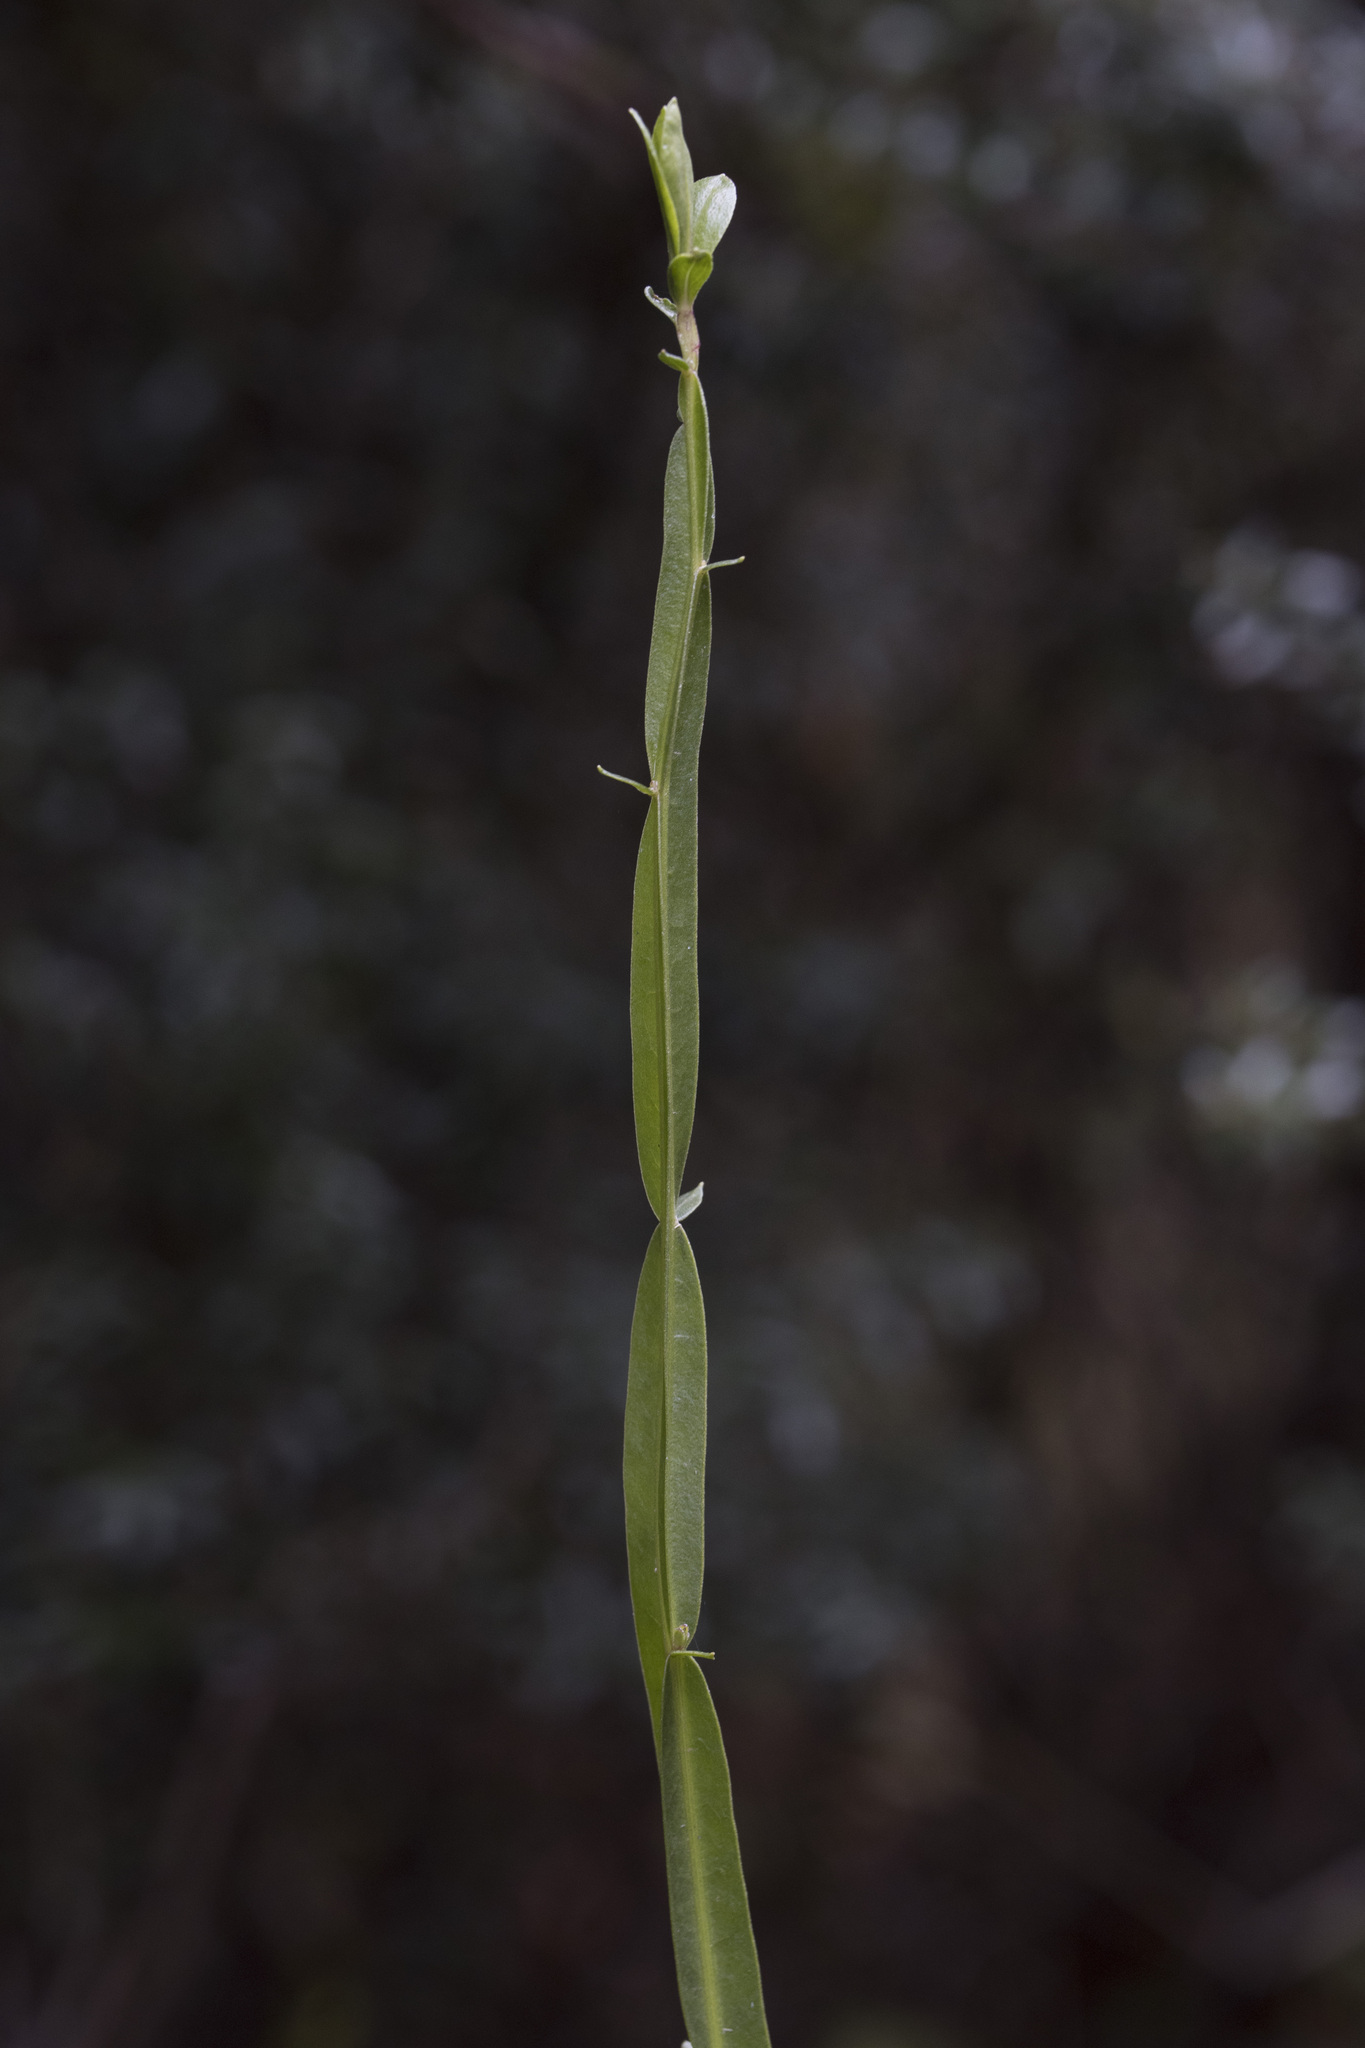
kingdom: Plantae
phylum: Tracheophyta
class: Magnoliopsida
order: Asterales
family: Asteraceae
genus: Baccharis
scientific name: Baccharis sagittalis
